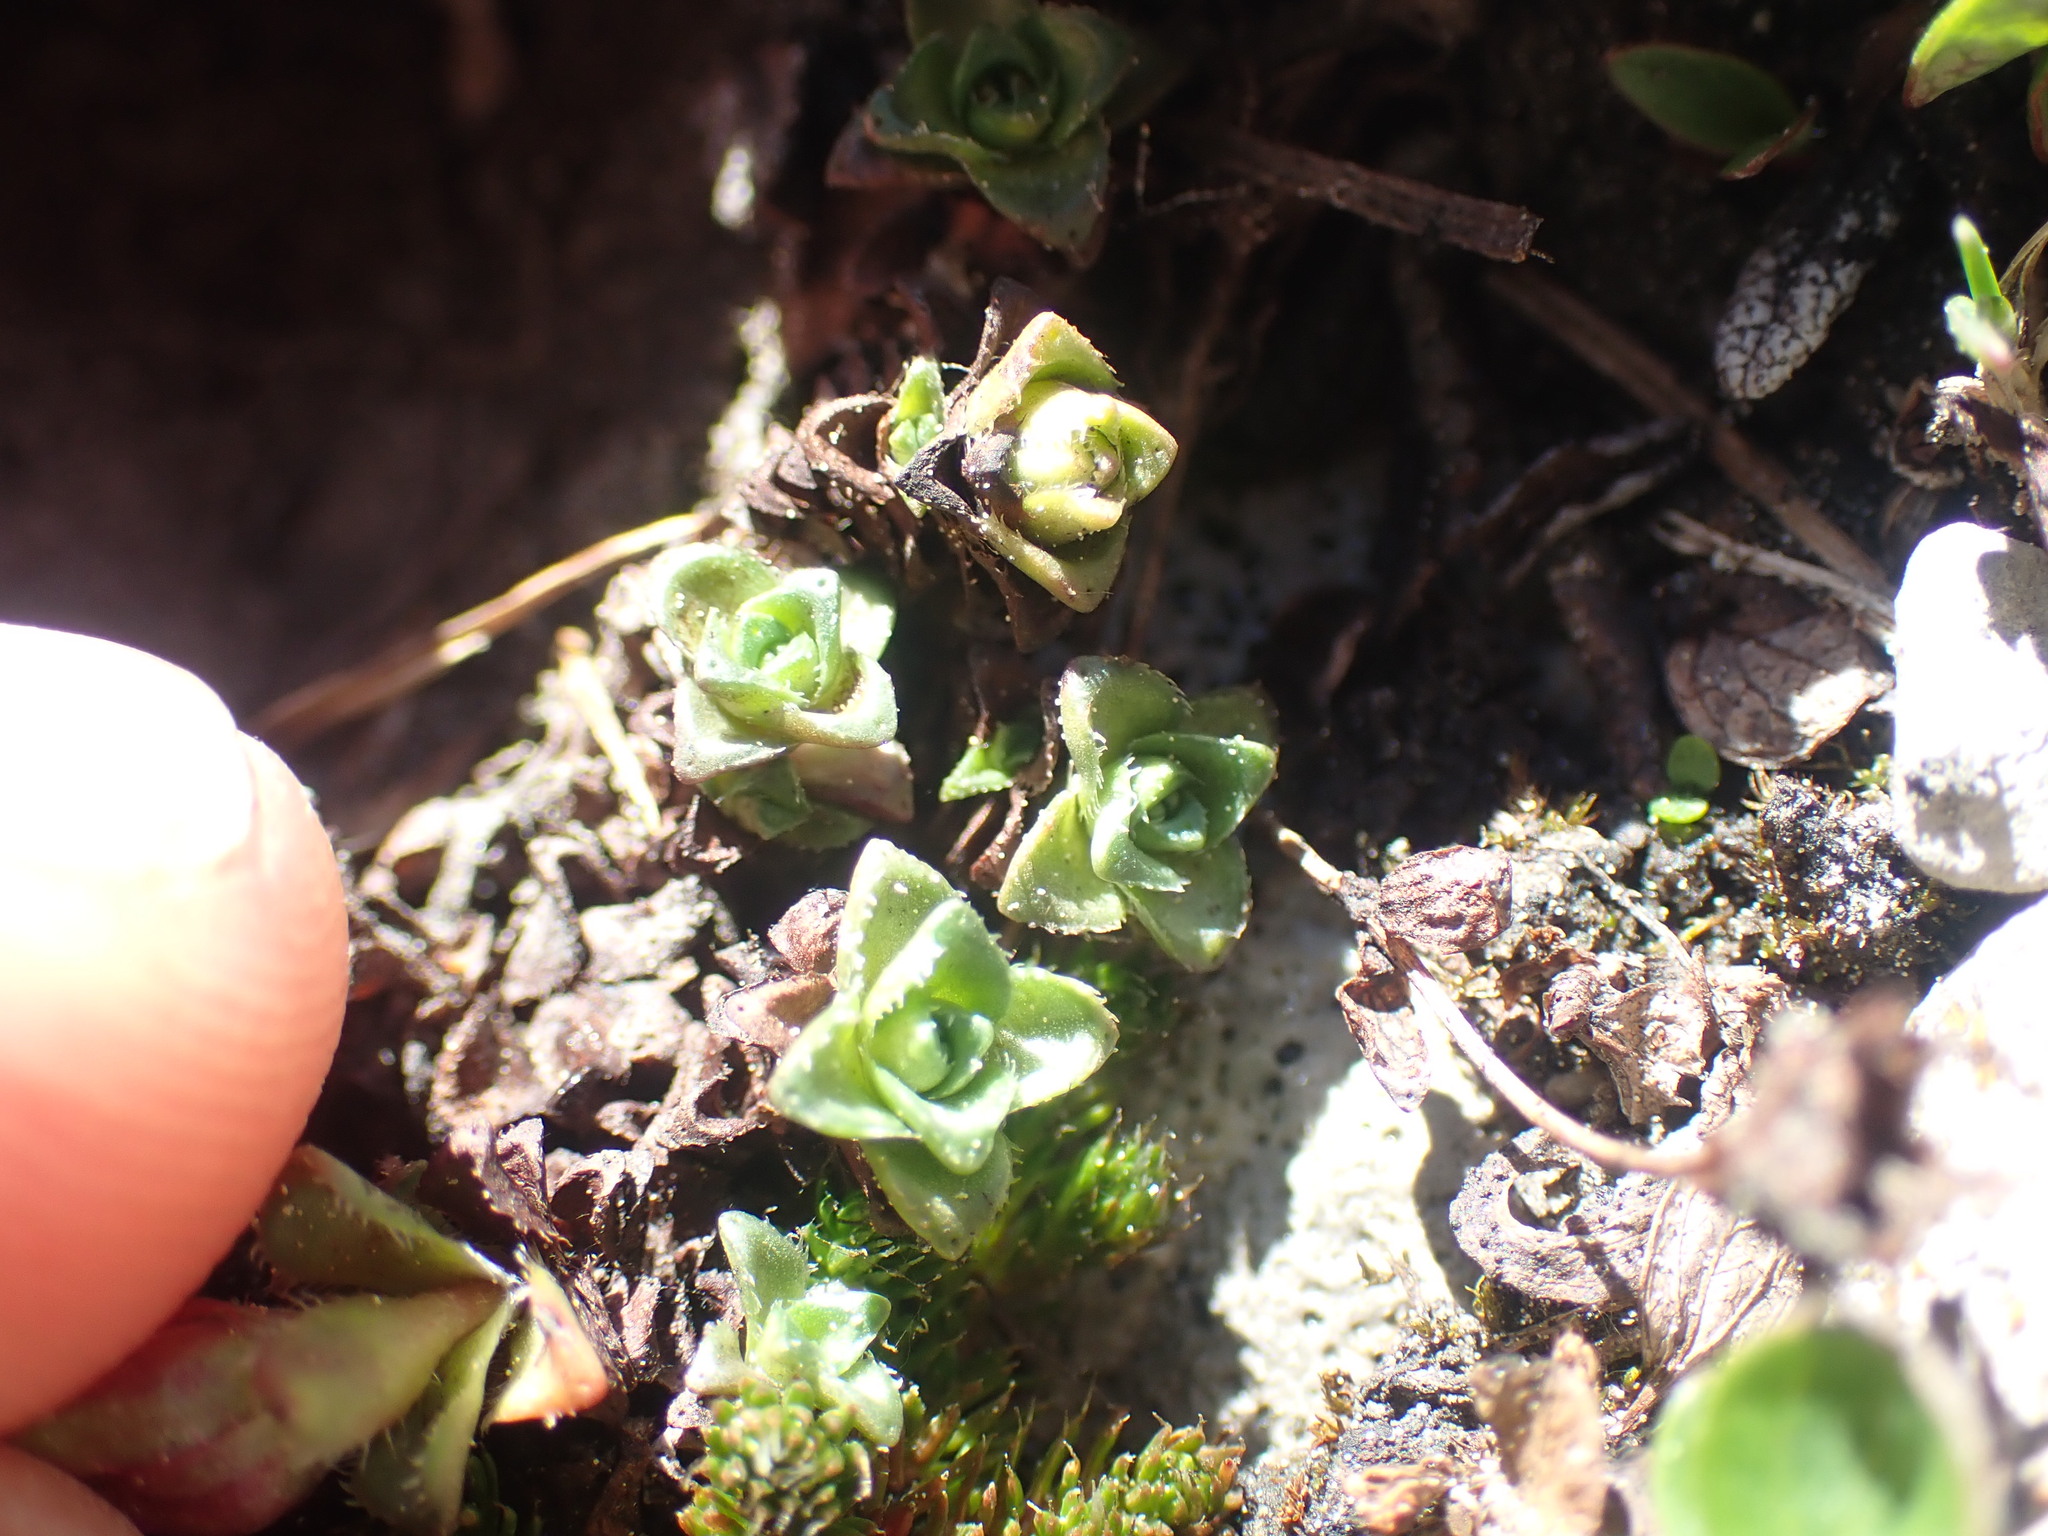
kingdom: Plantae
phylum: Tracheophyta
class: Magnoliopsida
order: Saxifragales
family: Saxifragaceae
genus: Saxifraga
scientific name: Saxifraga oppositifolia
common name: Purple saxifrage
